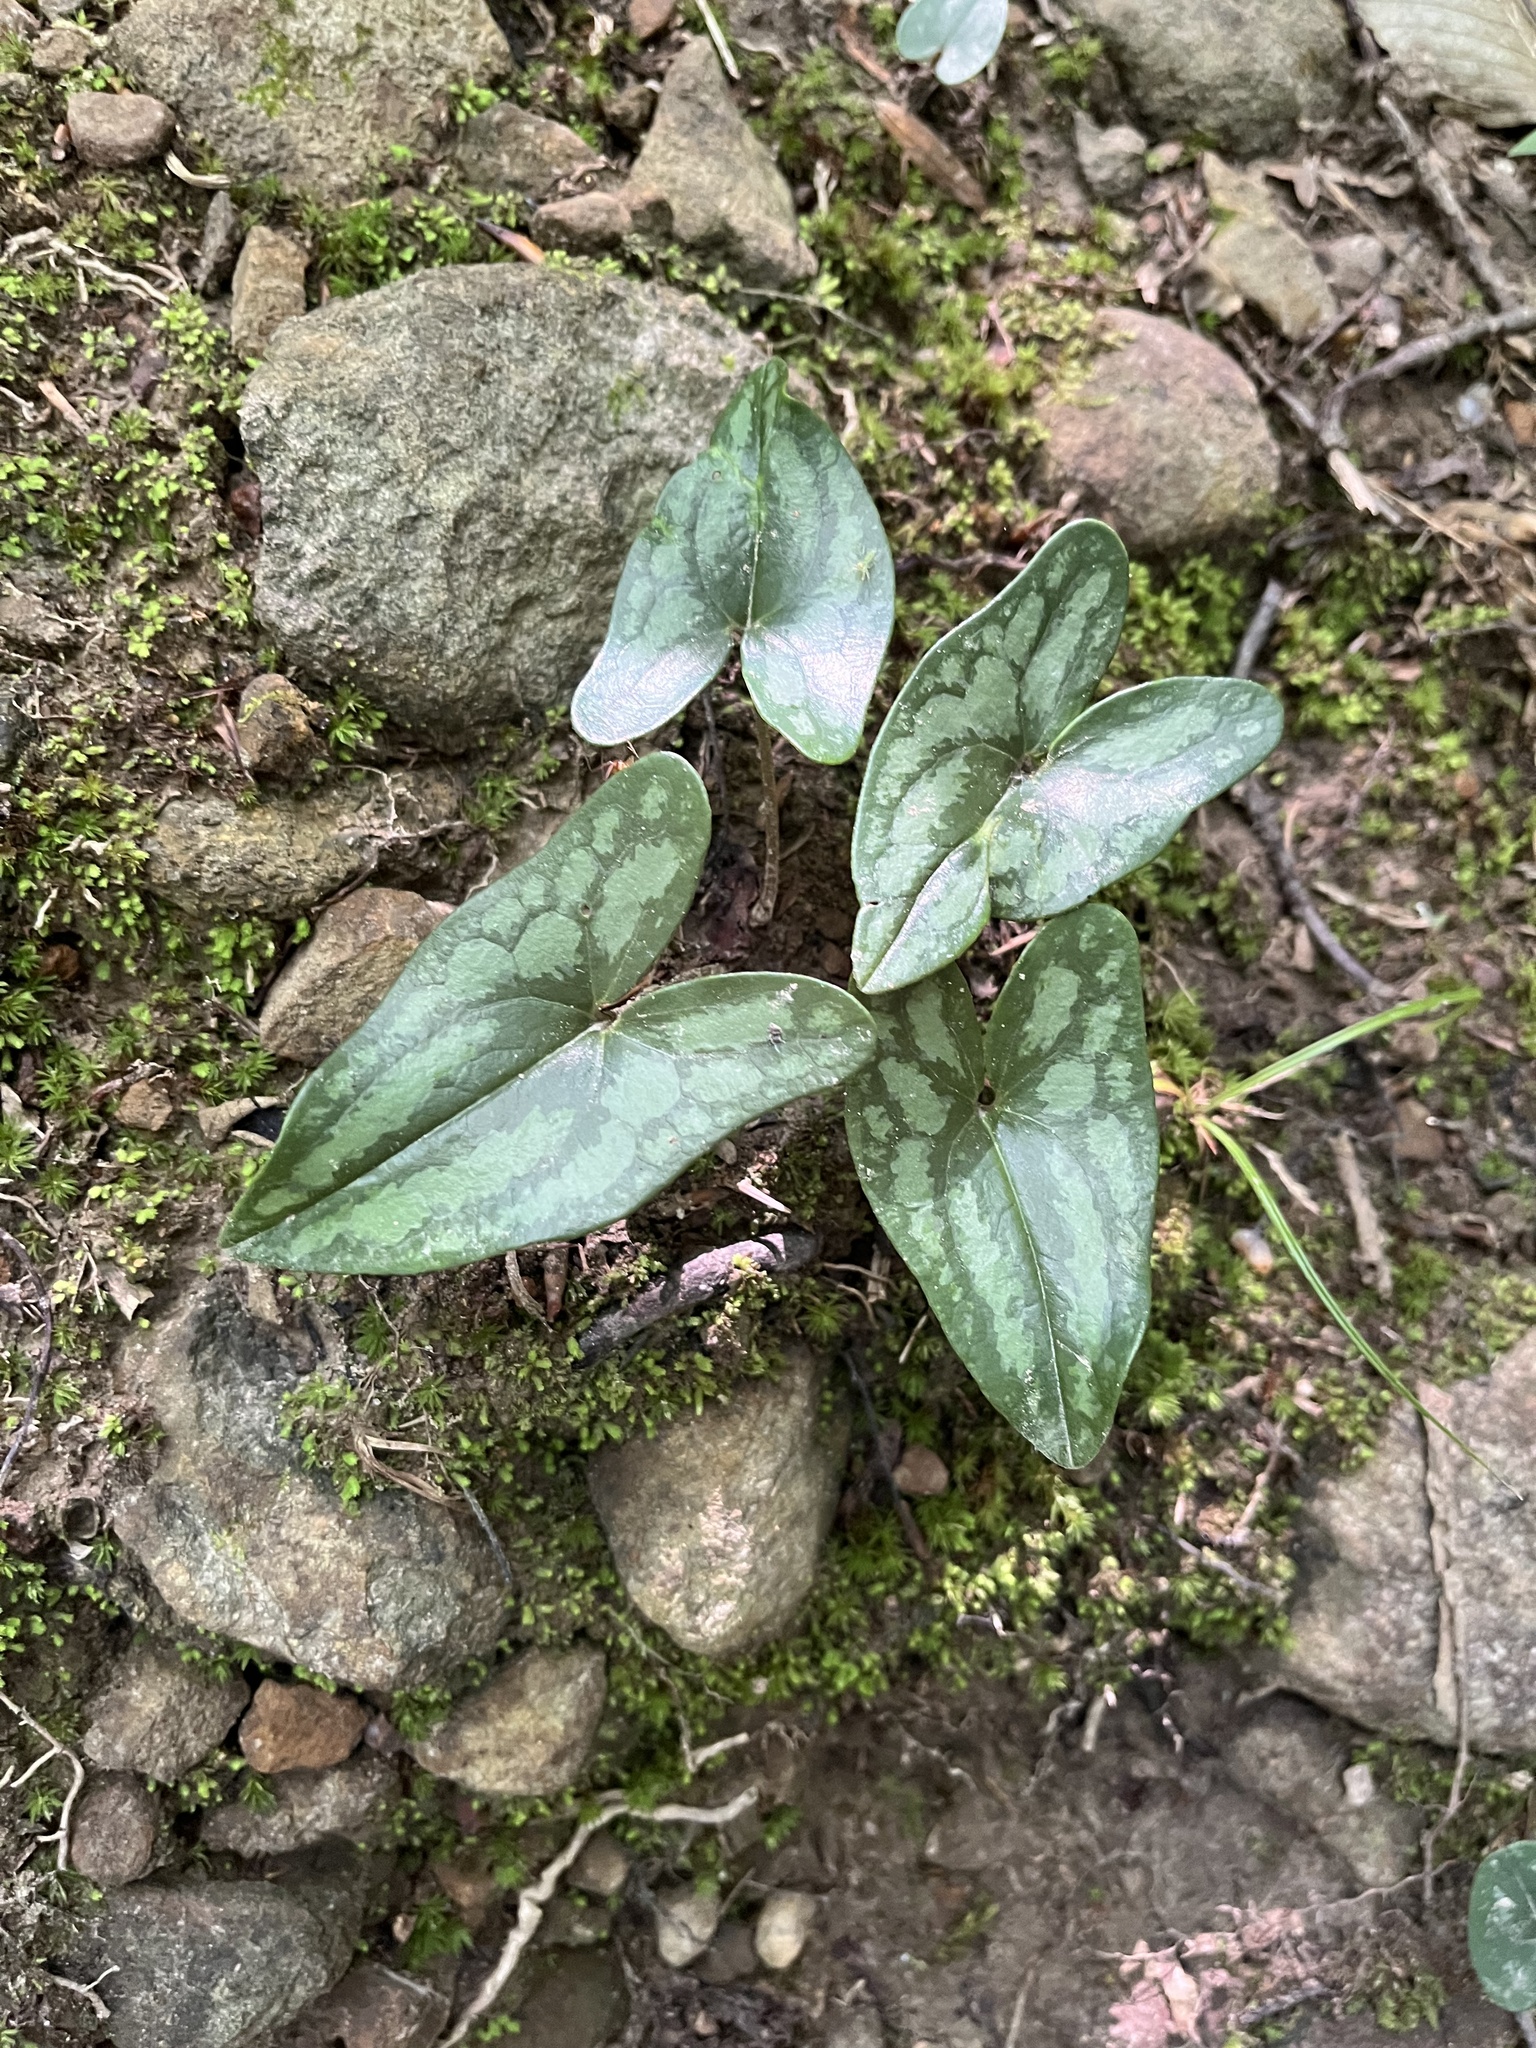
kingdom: Plantae
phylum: Tracheophyta
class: Magnoliopsida
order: Piperales
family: Aristolochiaceae
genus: Hexastylis
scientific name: Hexastylis arifolia
